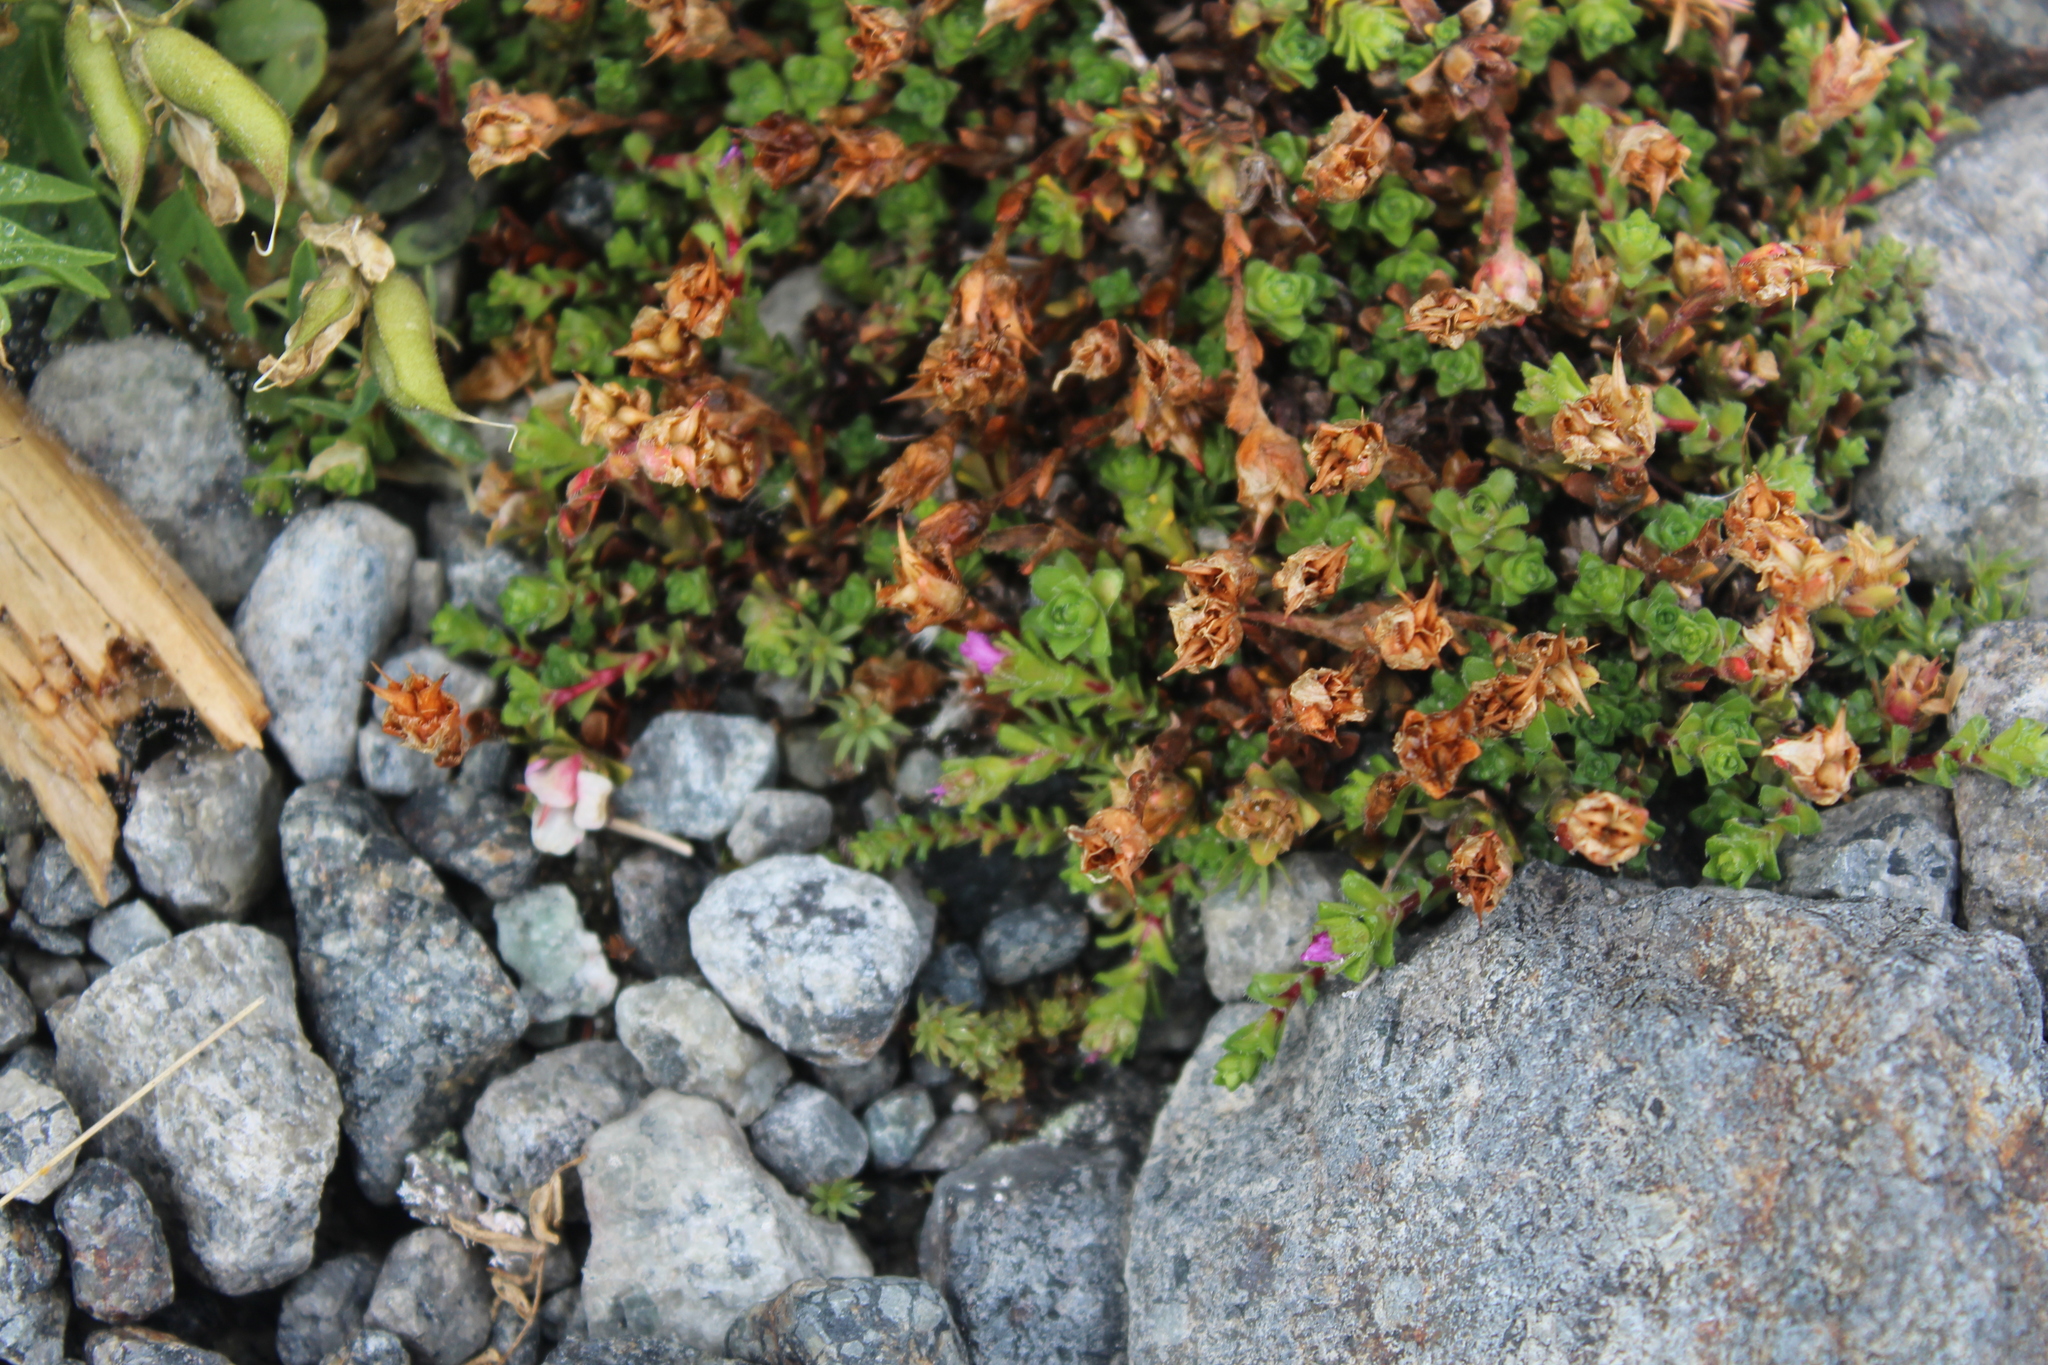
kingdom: Plantae
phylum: Tracheophyta
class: Magnoliopsida
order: Saxifragales
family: Saxifragaceae
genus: Saxifraga
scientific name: Saxifraga oppositifolia
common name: Purple saxifrage
